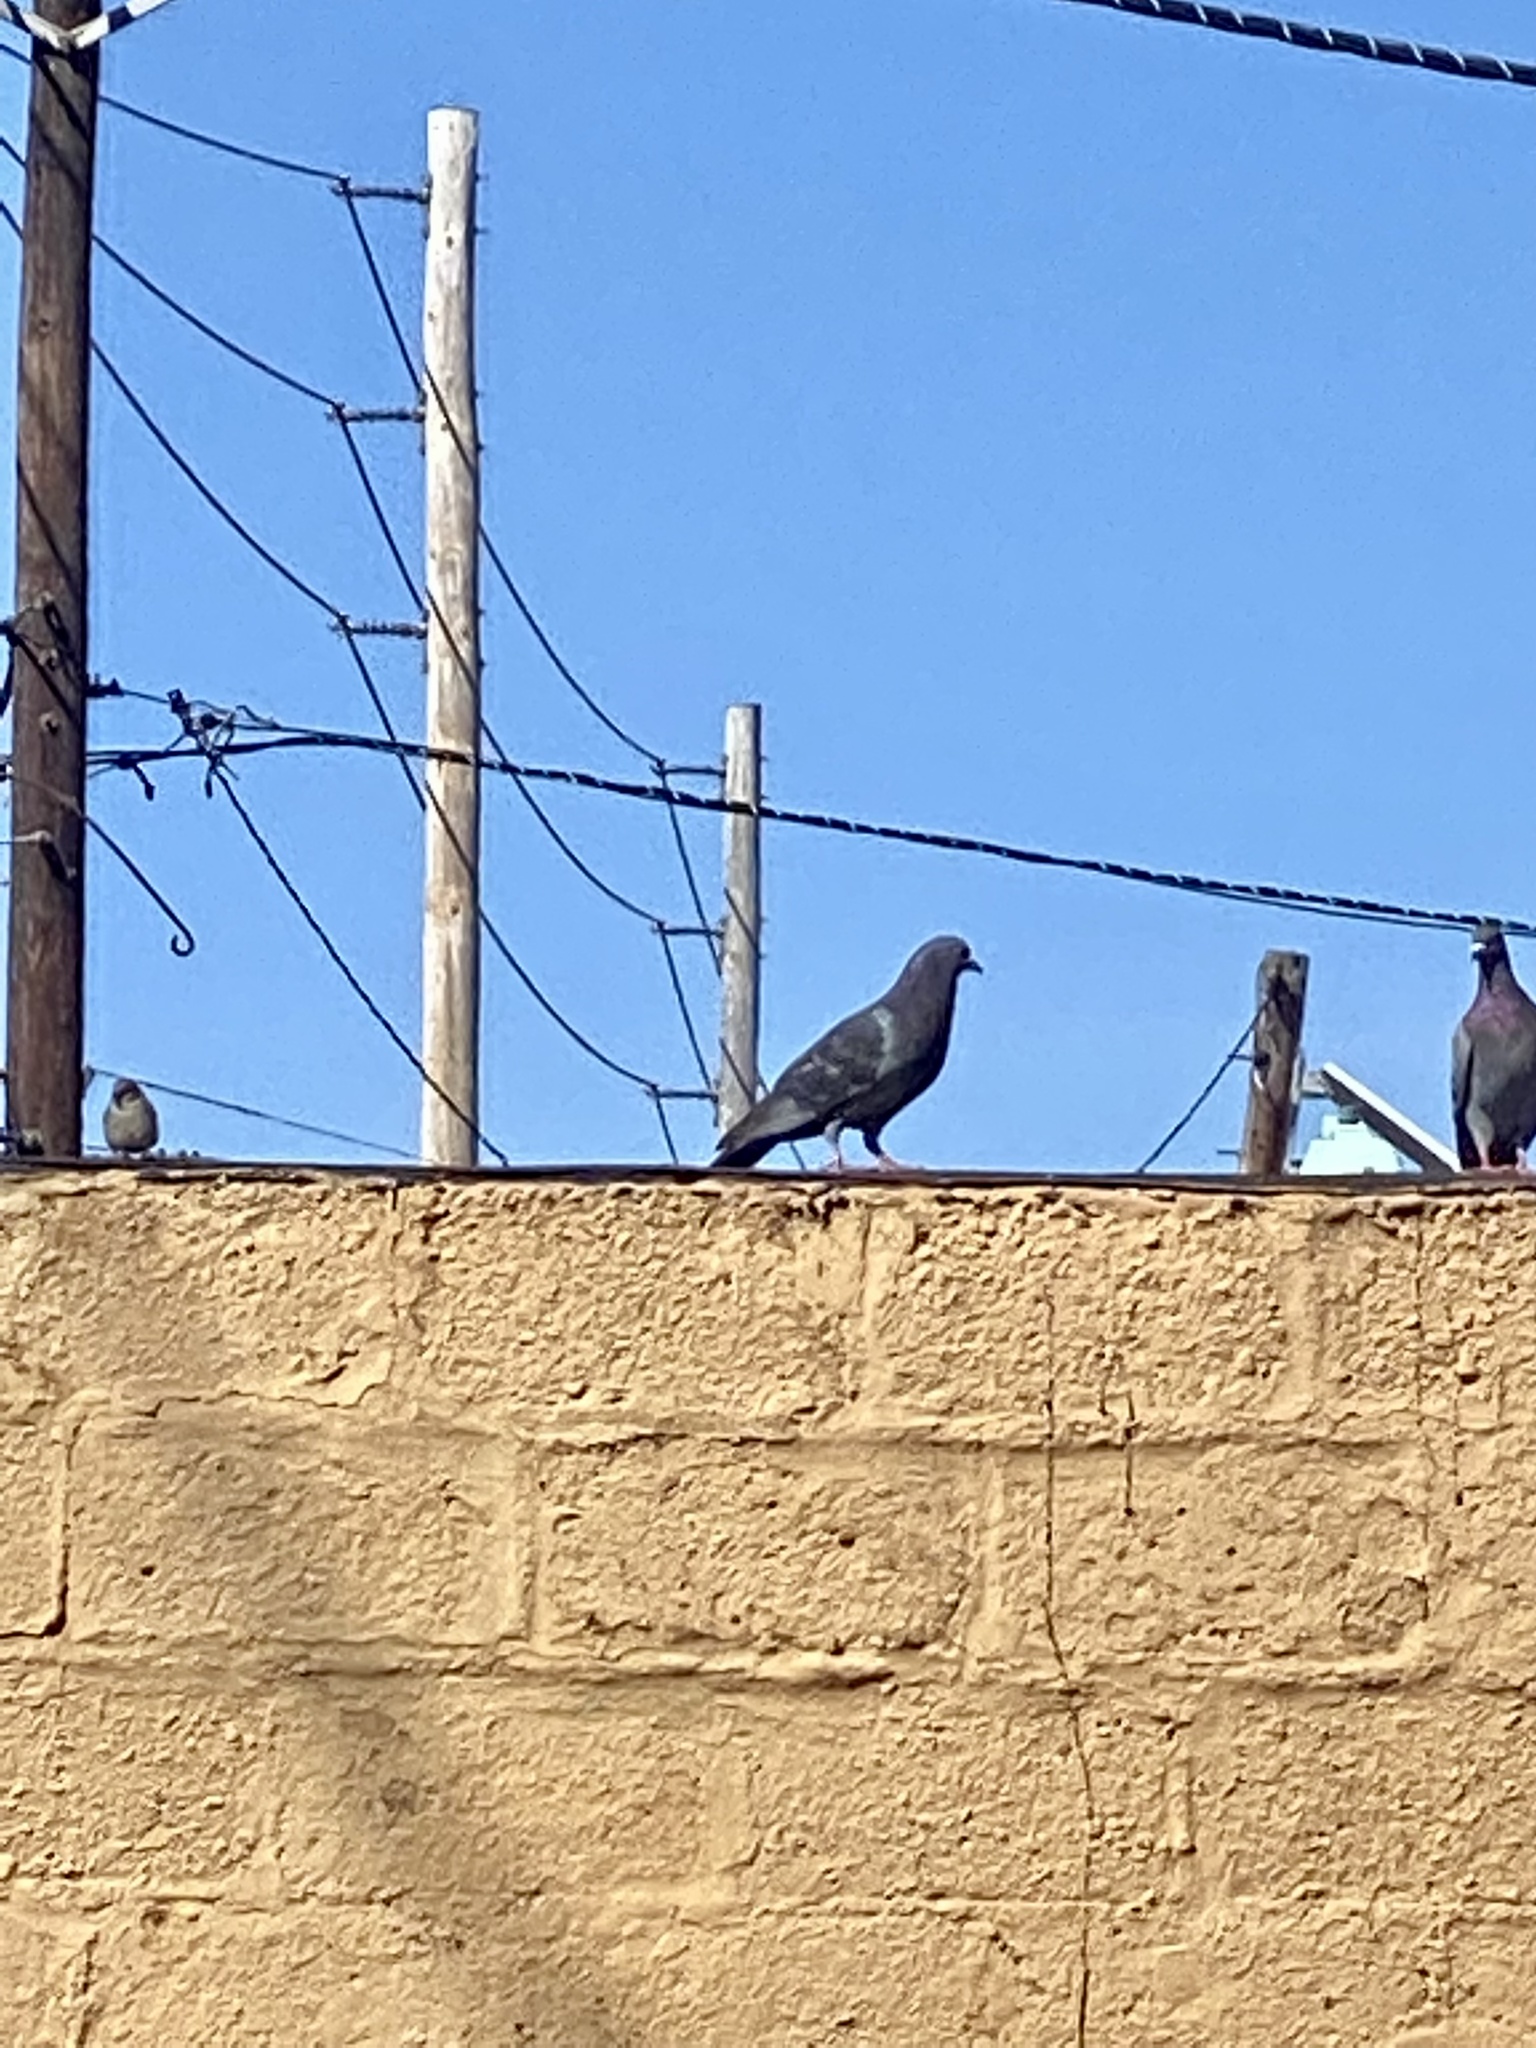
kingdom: Animalia
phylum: Chordata
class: Aves
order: Columbiformes
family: Columbidae
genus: Columba
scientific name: Columba livia
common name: Rock pigeon
